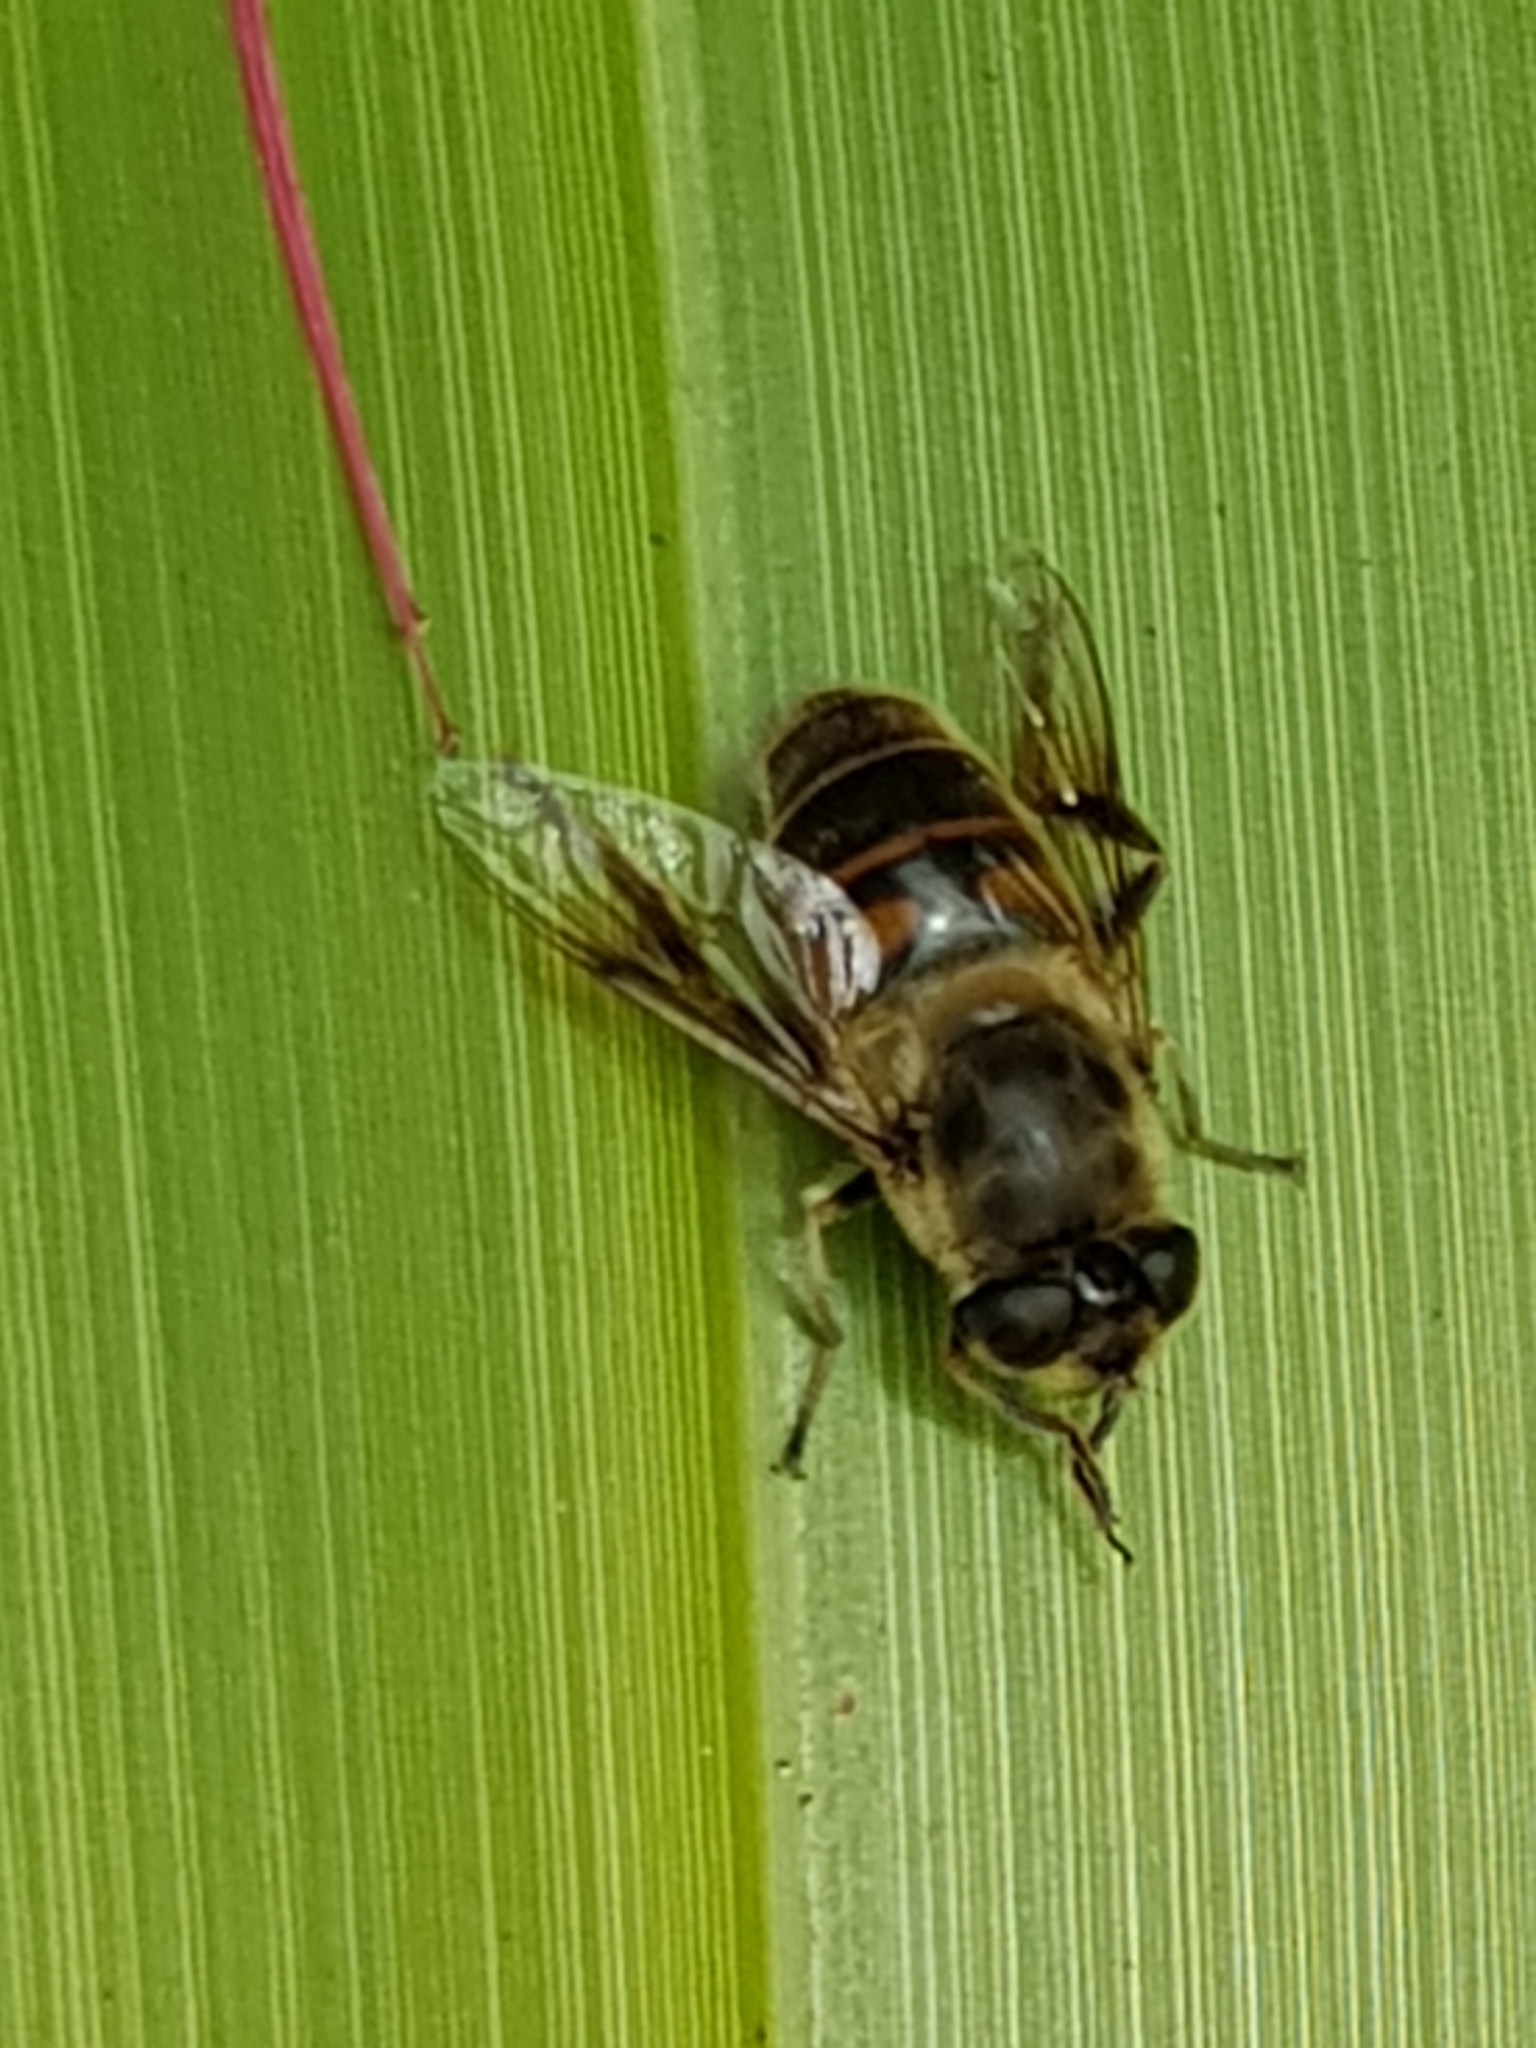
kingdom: Animalia
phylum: Arthropoda
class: Insecta
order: Diptera
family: Syrphidae
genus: Eristalis
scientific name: Eristalis tenax
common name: Drone fly
